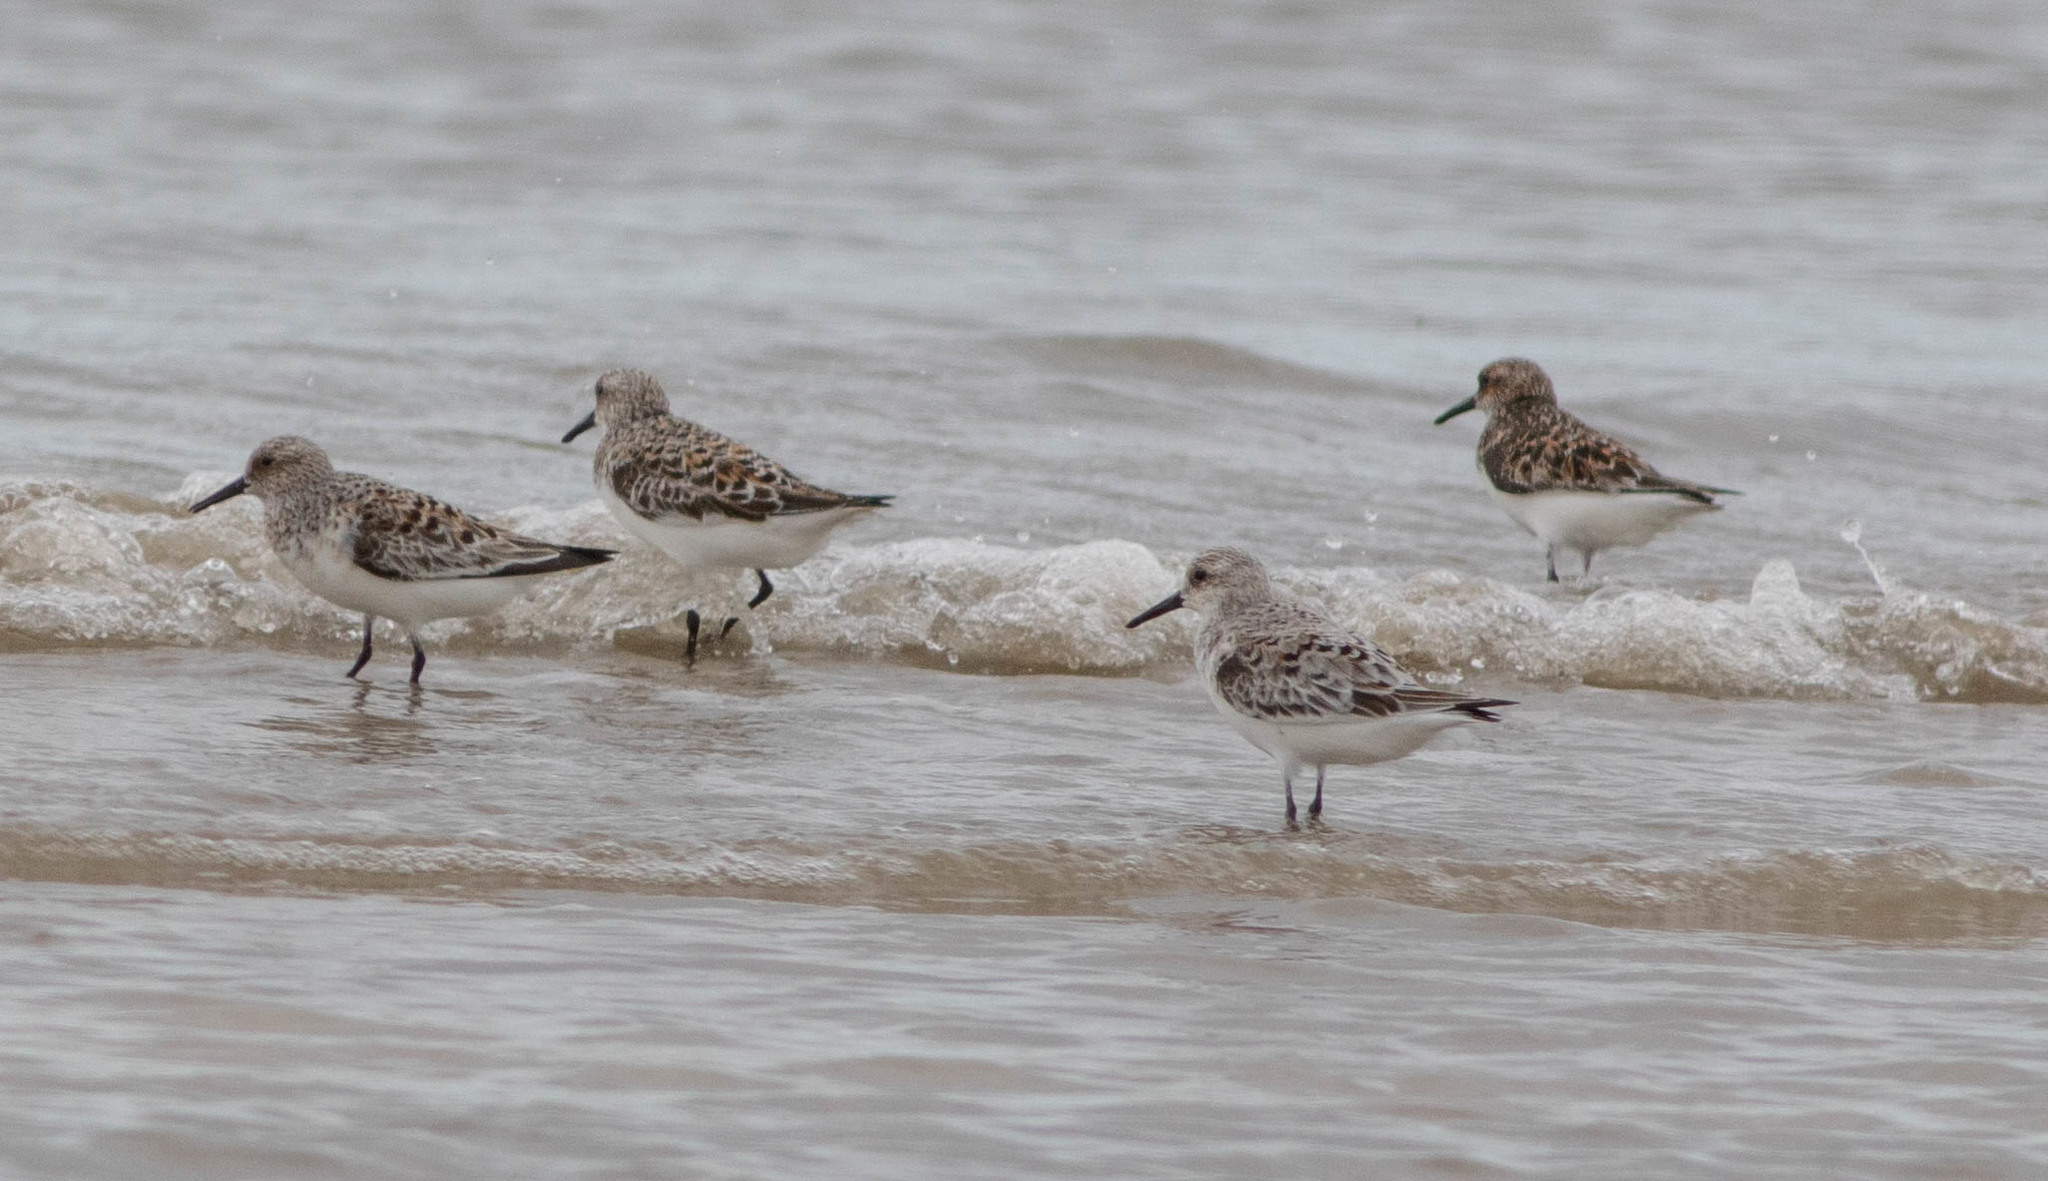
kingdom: Animalia
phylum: Chordata
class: Aves
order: Charadriiformes
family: Scolopacidae
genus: Calidris
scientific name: Calidris alba
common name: Sanderling
